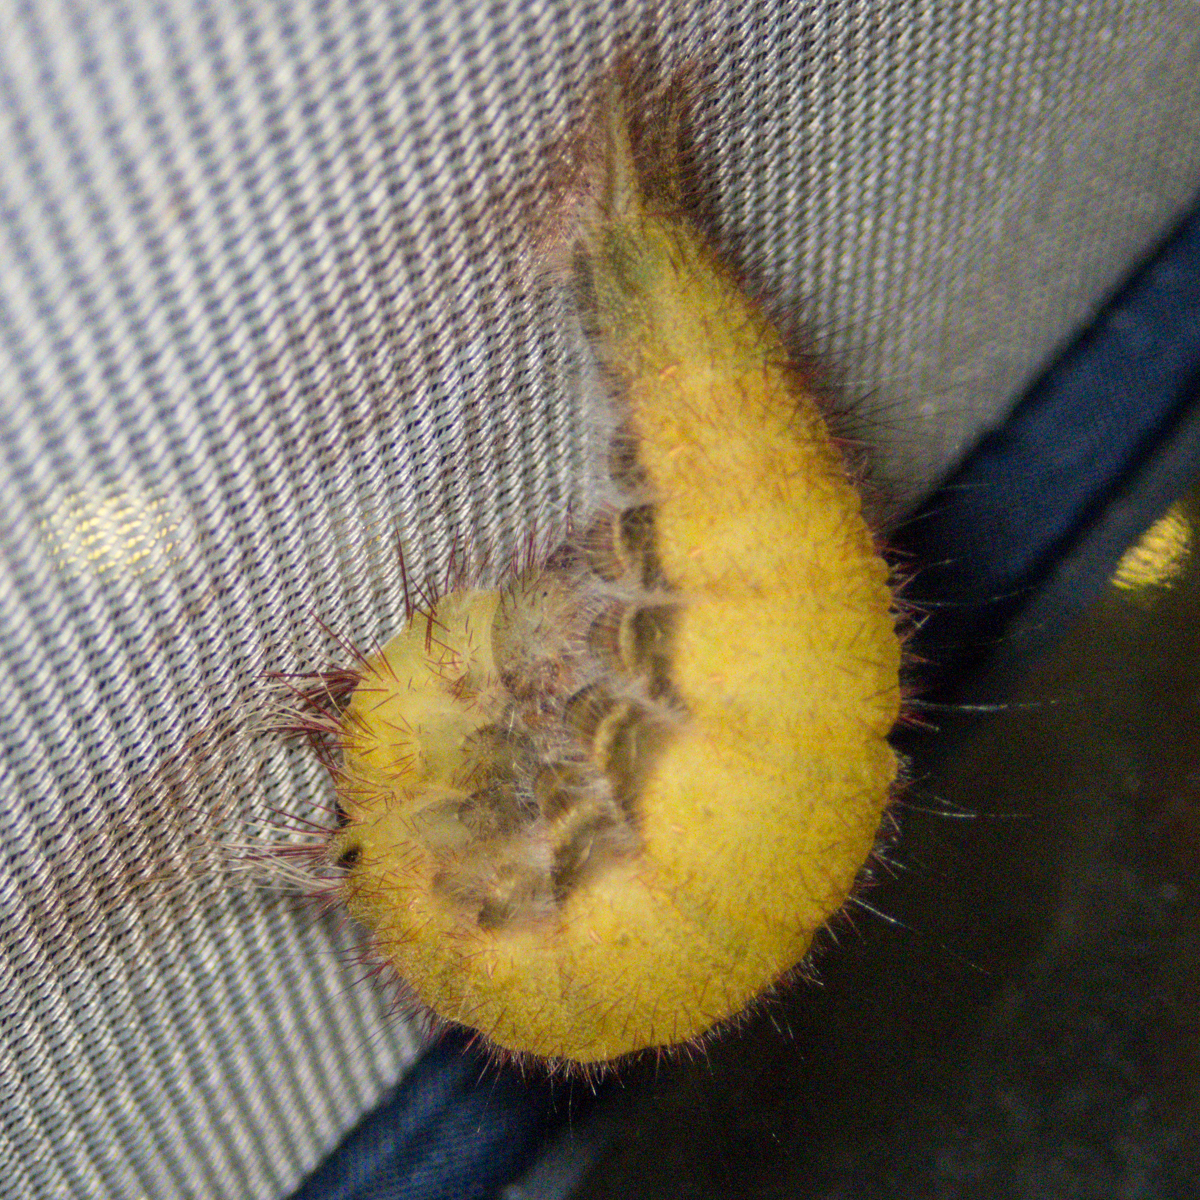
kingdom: Animalia
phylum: Arthropoda
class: Insecta
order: Lepidoptera
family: Nymphalidae
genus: Amathusia
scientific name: Amathusia phidippus
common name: Palm king
